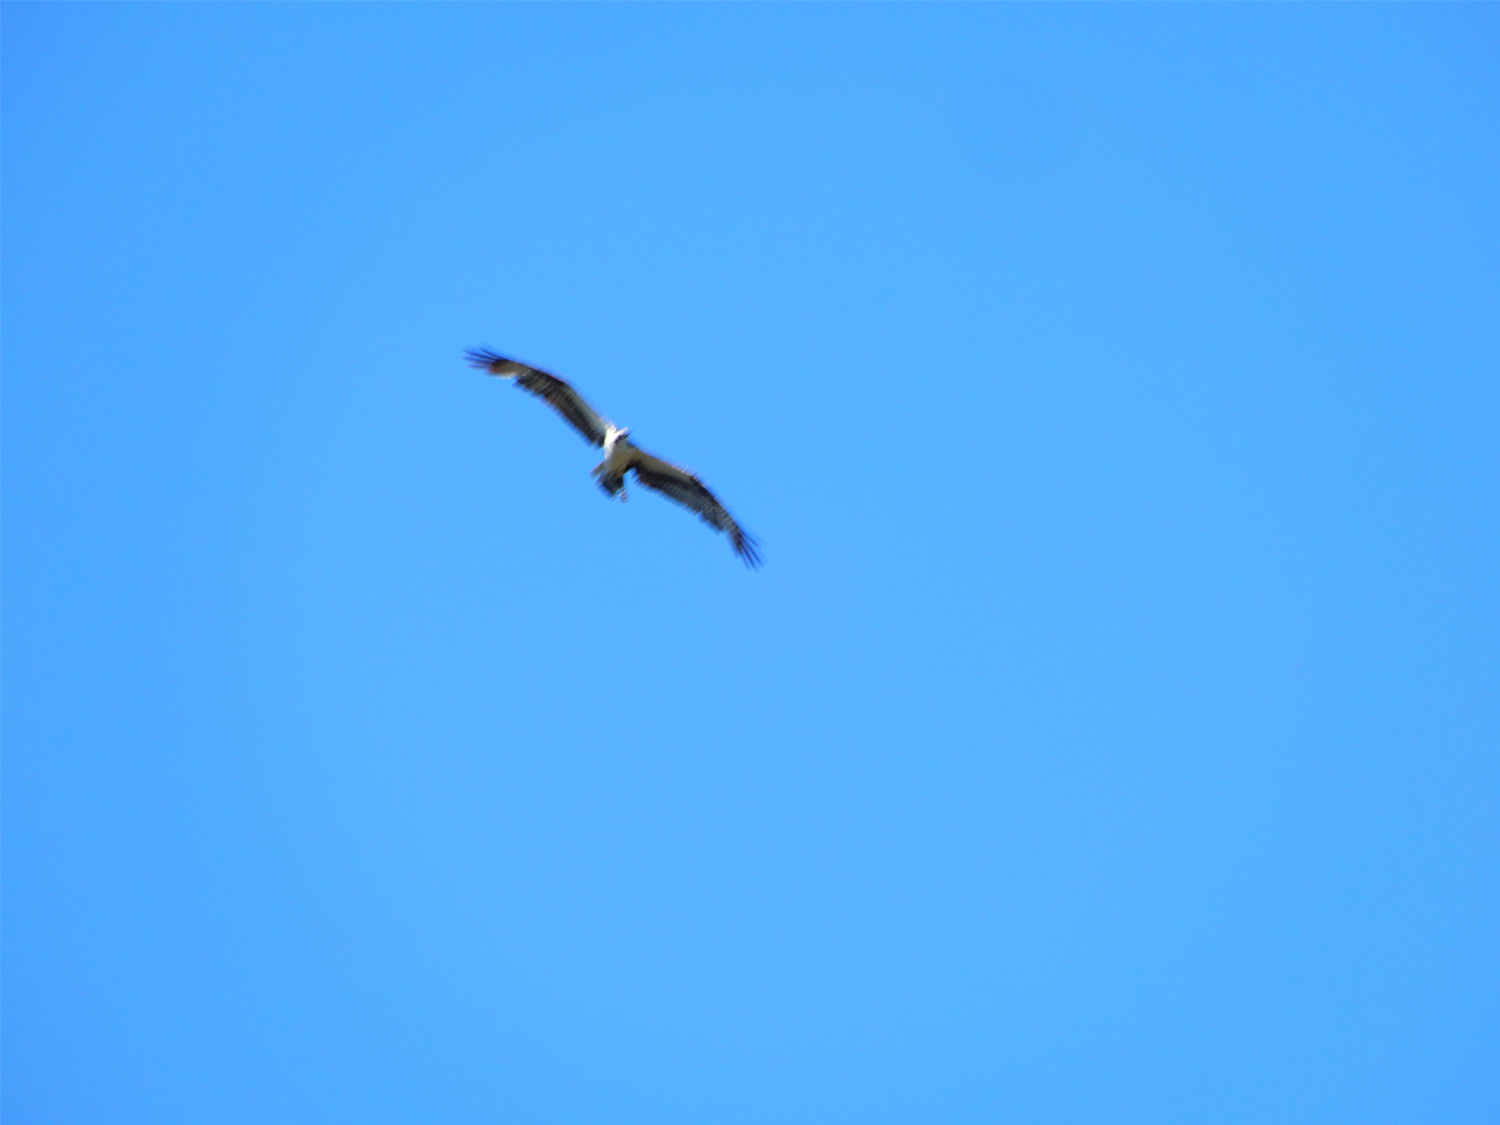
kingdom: Animalia
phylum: Chordata
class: Aves
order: Accipitriformes
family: Pandionidae
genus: Pandion
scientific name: Pandion haliaetus
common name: Osprey
